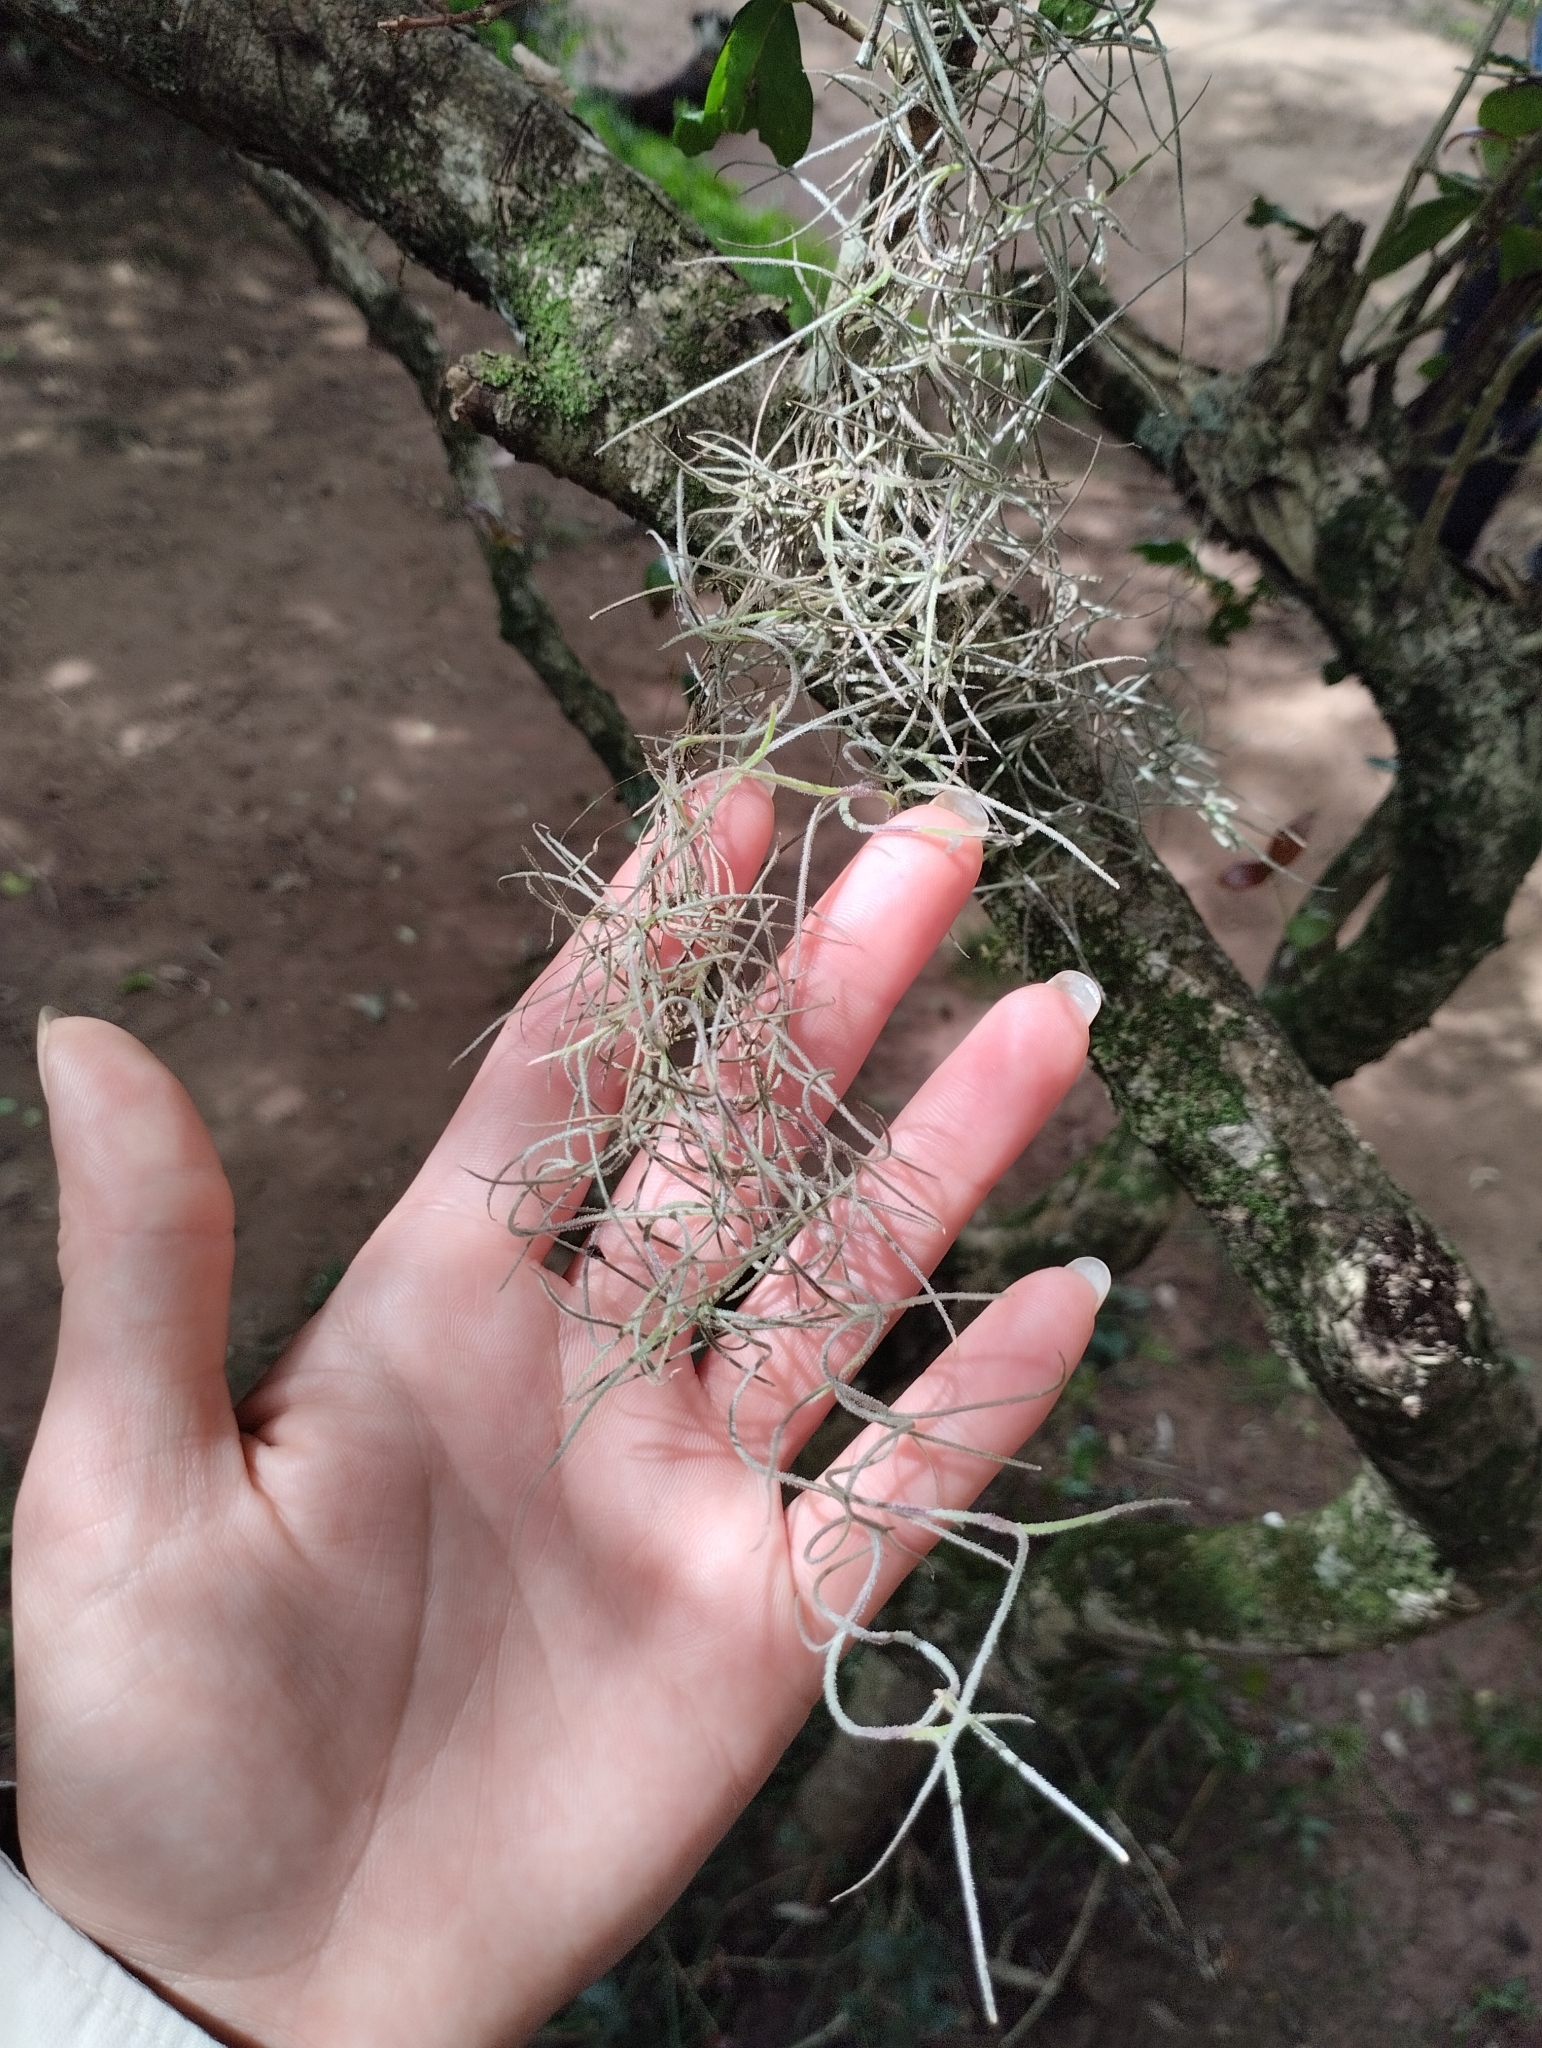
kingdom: Plantae
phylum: Tracheophyta
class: Liliopsida
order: Poales
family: Bromeliaceae
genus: Tillandsia
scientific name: Tillandsia usneoides
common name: Spanish moss
